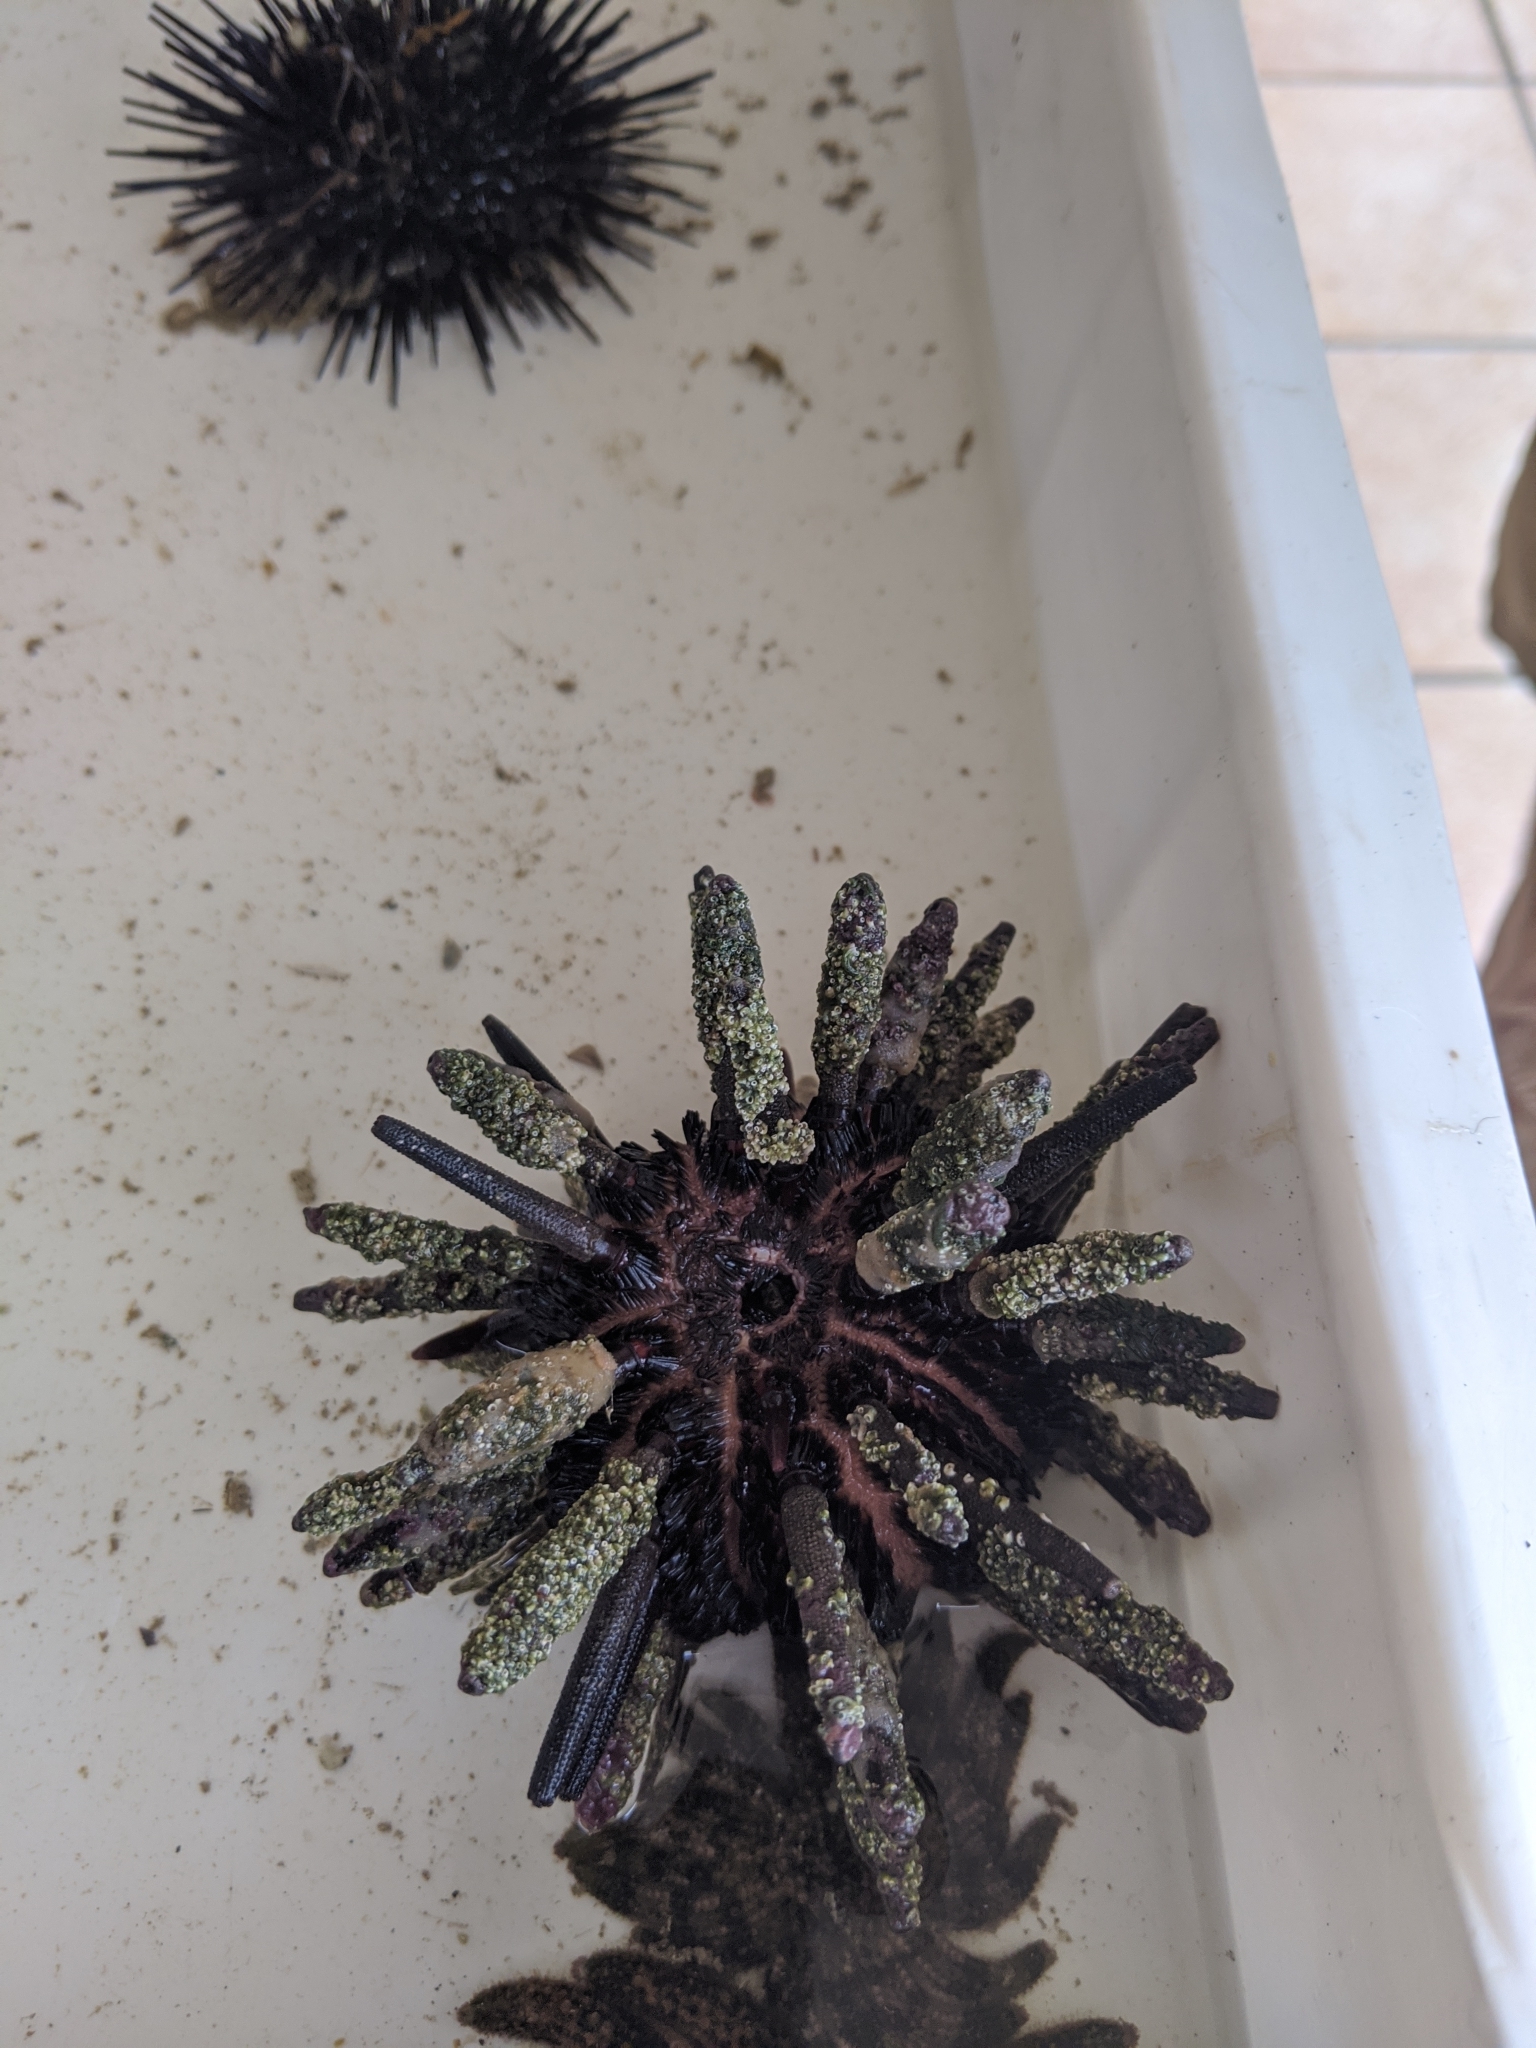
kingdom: Animalia
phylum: Echinodermata
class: Echinoidea
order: Cidaroida
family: Cidaridae
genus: Eucidaris
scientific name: Eucidaris thouarsii
